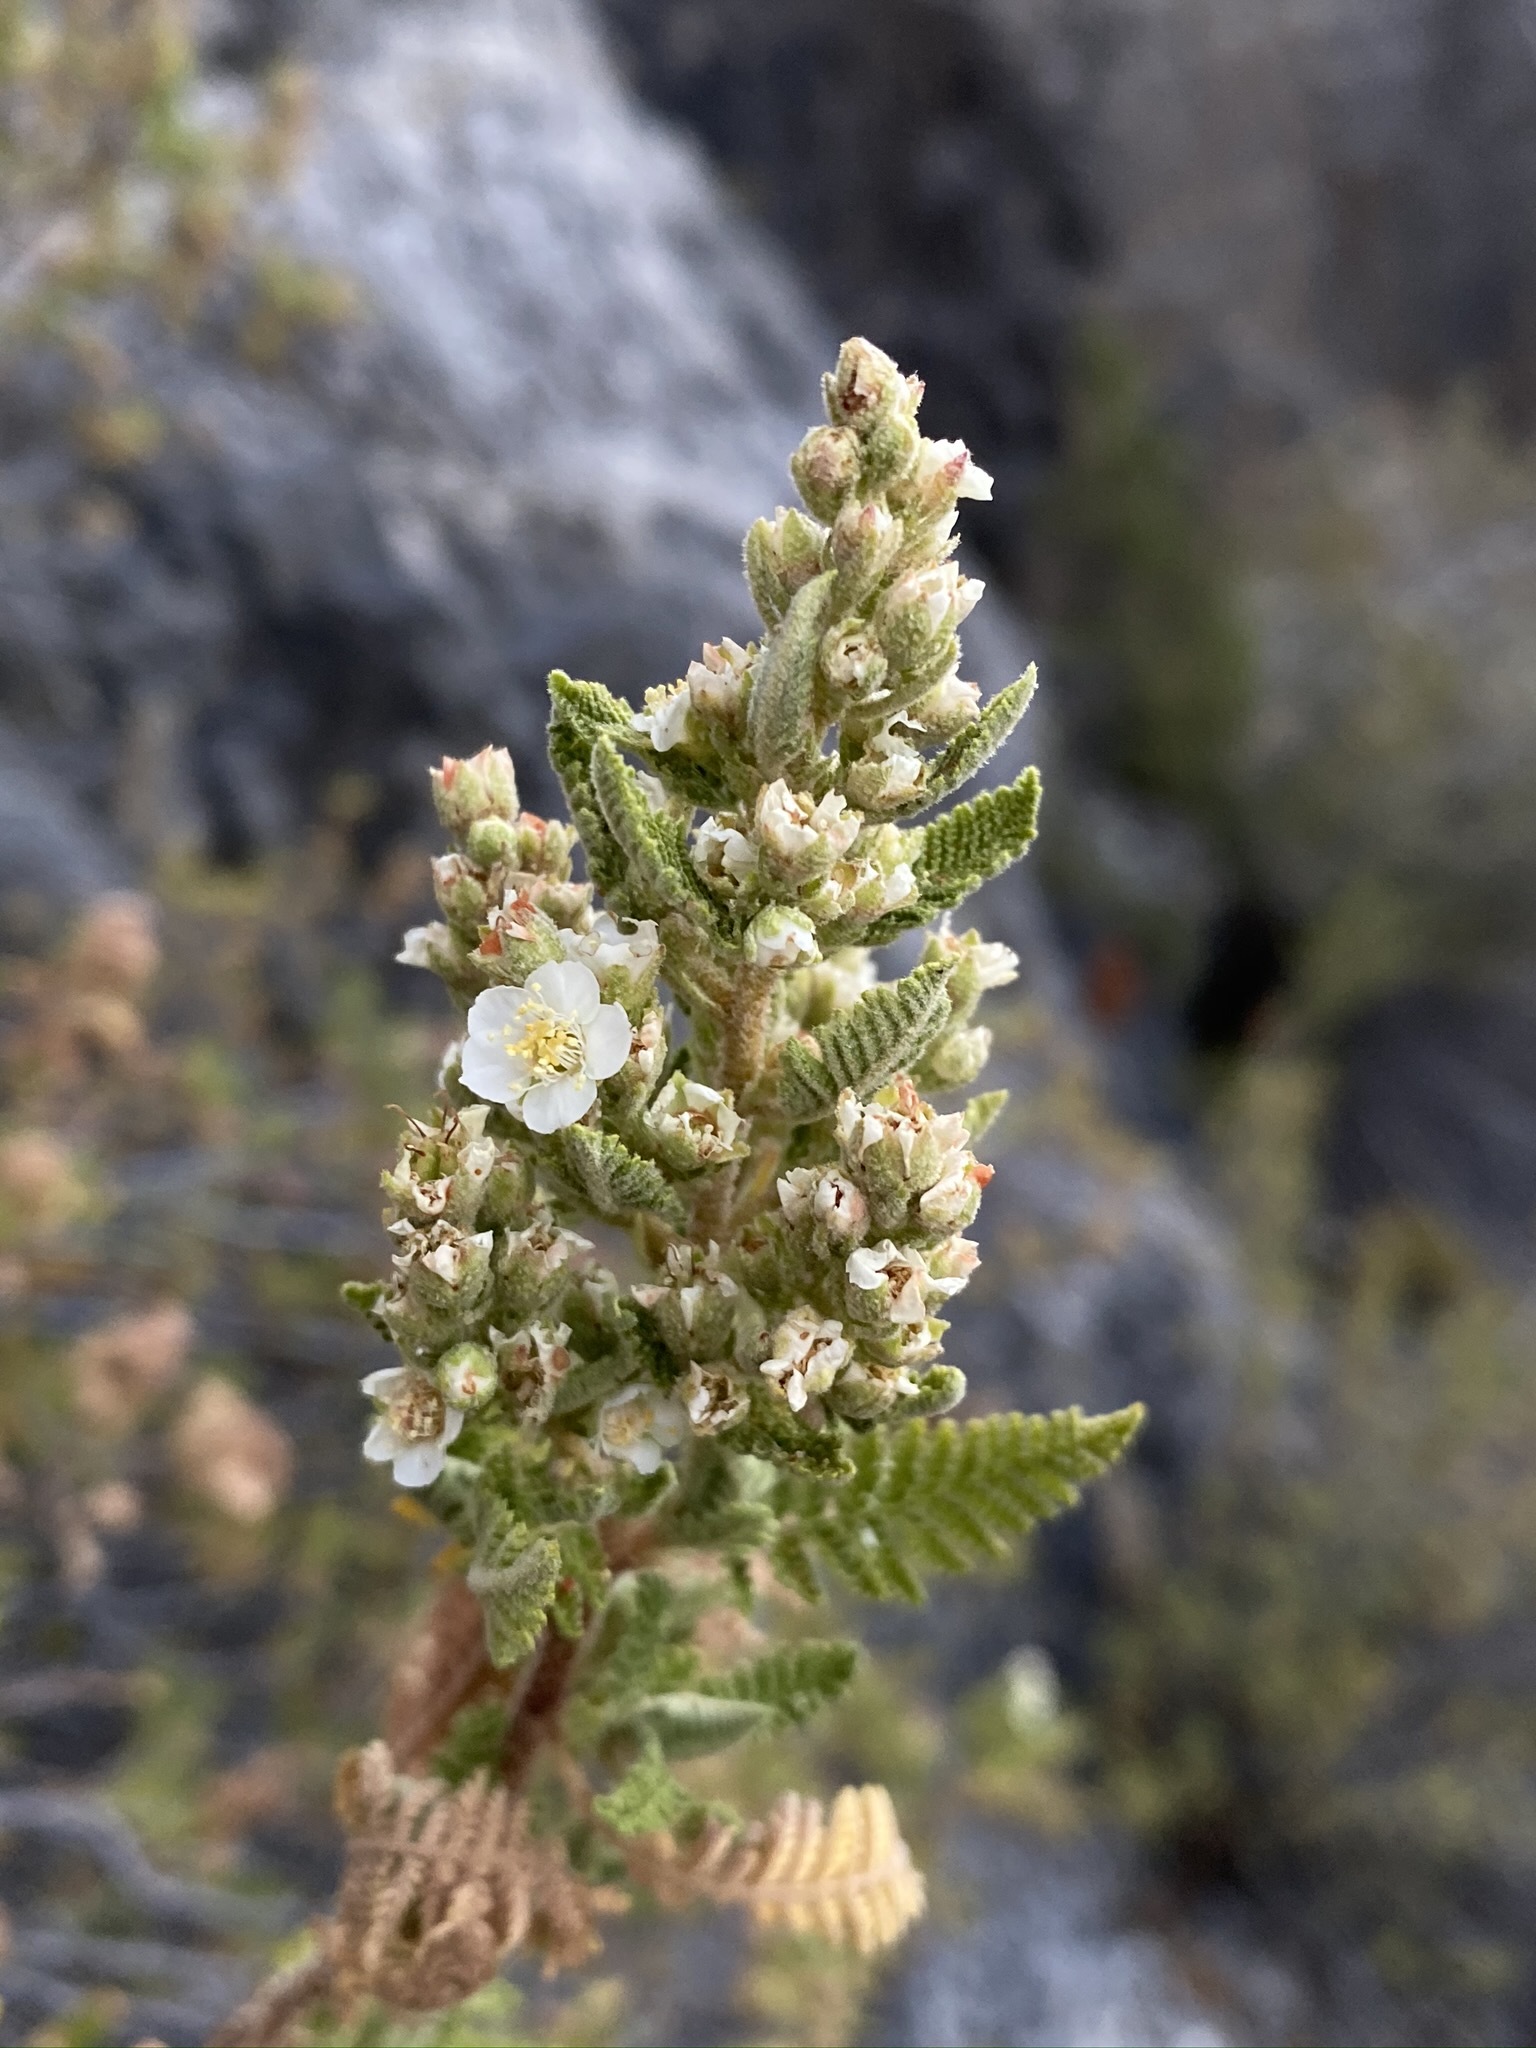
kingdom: Plantae
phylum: Tracheophyta
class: Magnoliopsida
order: Rosales
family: Rosaceae
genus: Chamaebatiaria
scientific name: Chamaebatiaria millefolium
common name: Fernbush
